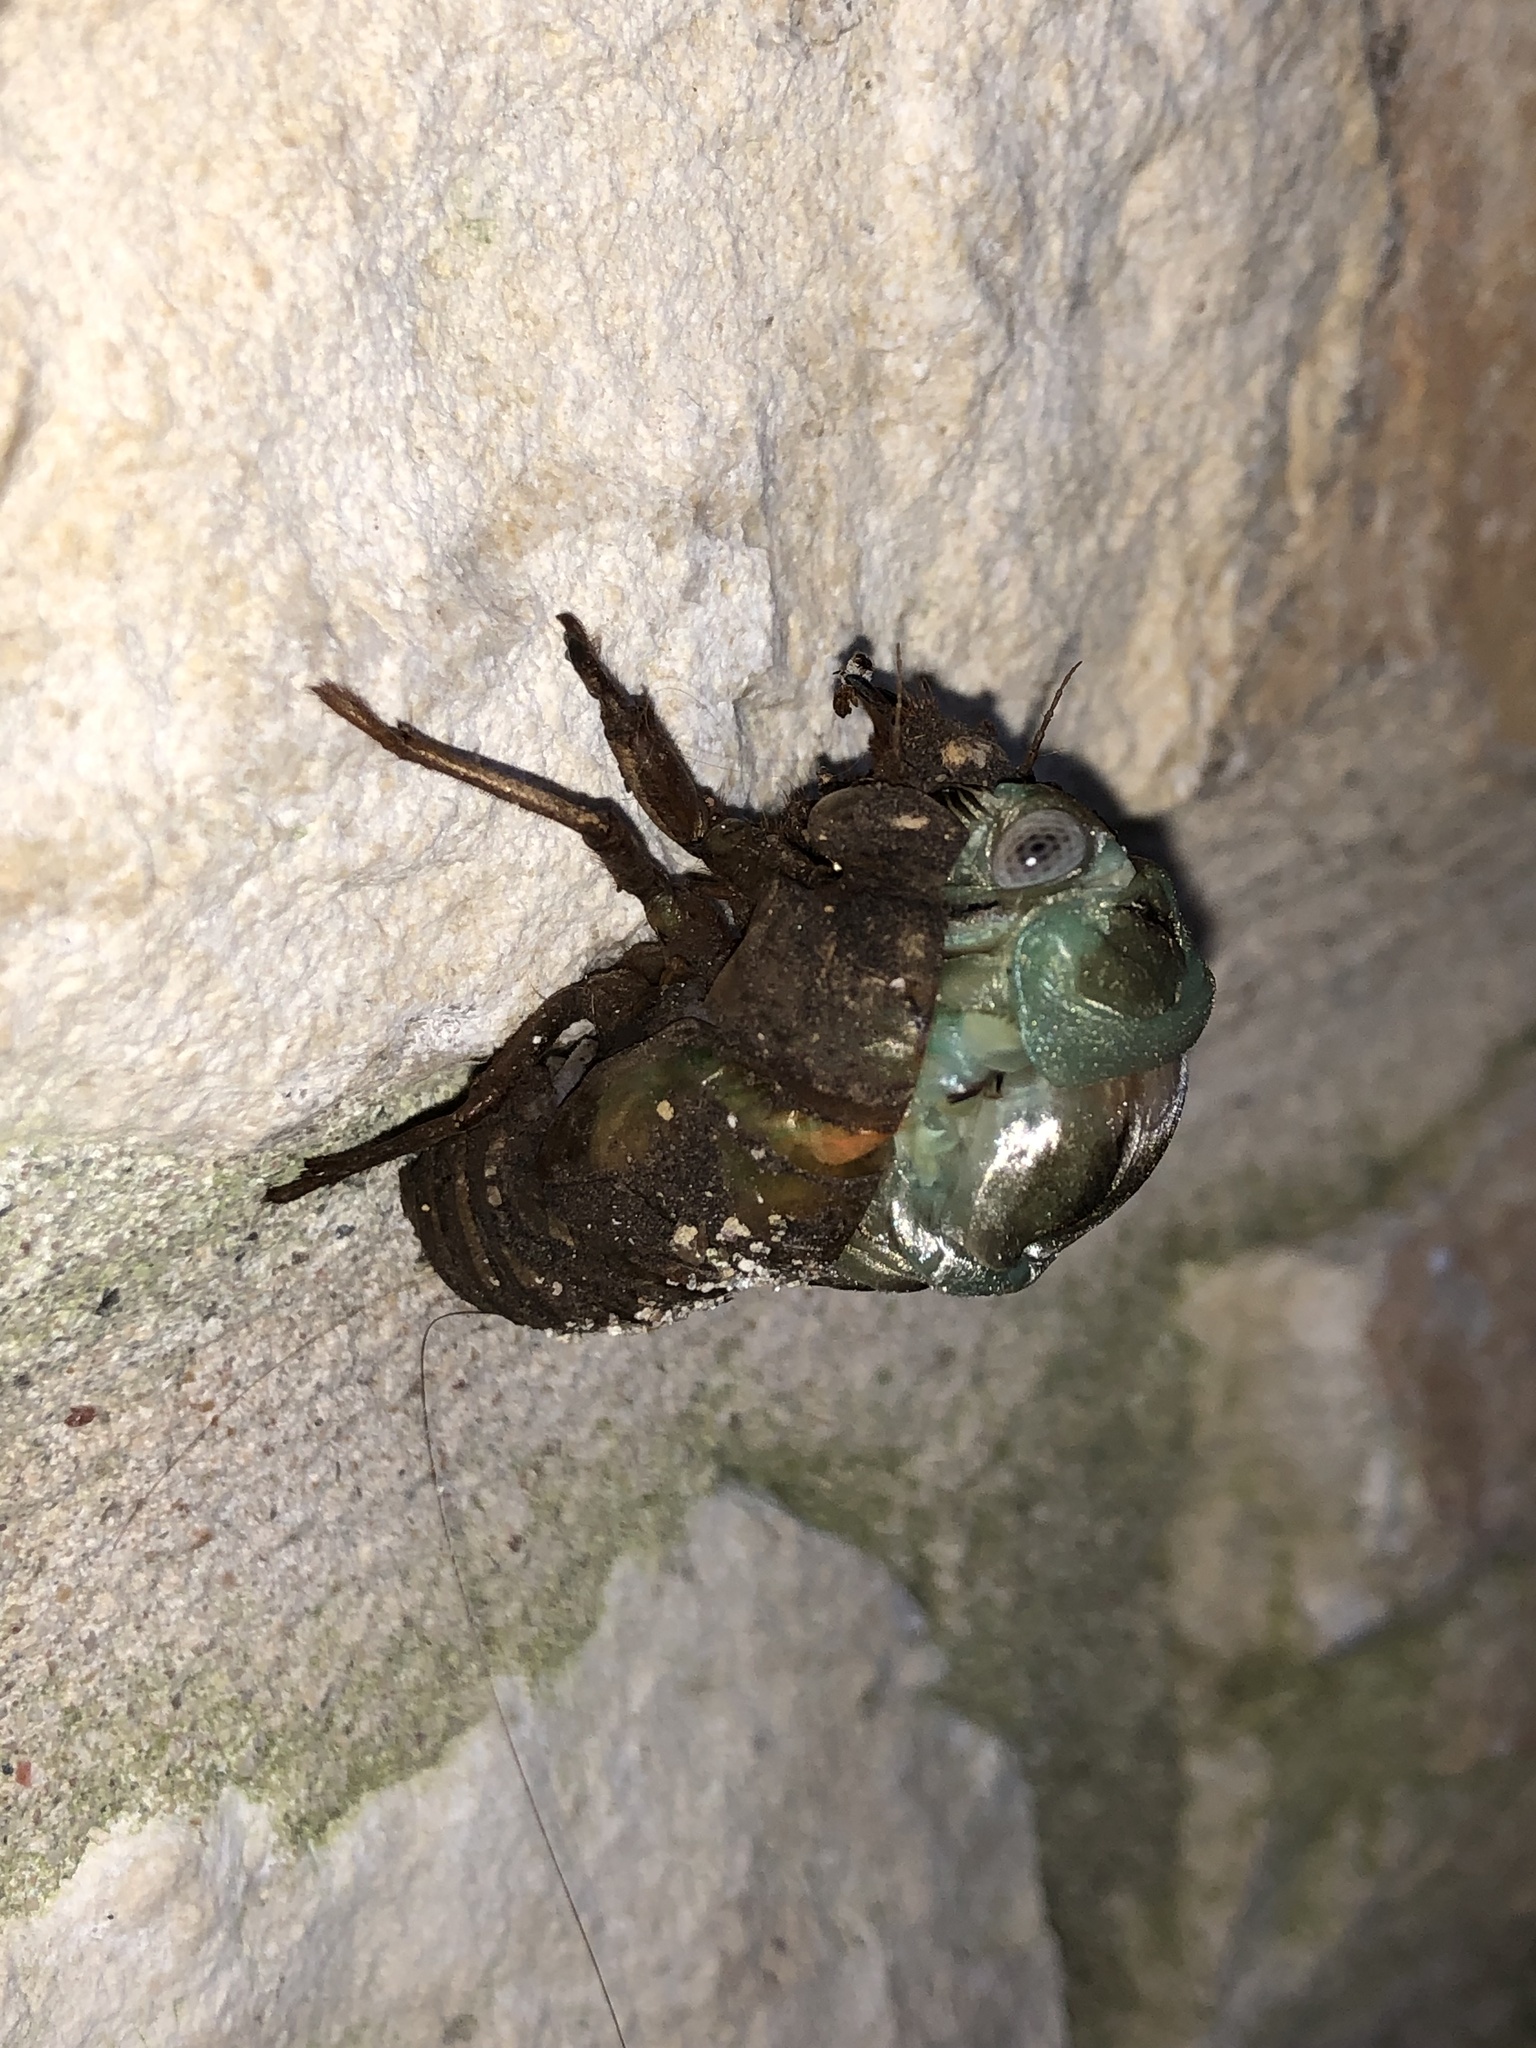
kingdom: Animalia
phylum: Arthropoda
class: Insecta
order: Hemiptera
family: Cicadidae
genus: Megatibicen
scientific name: Megatibicen resh
